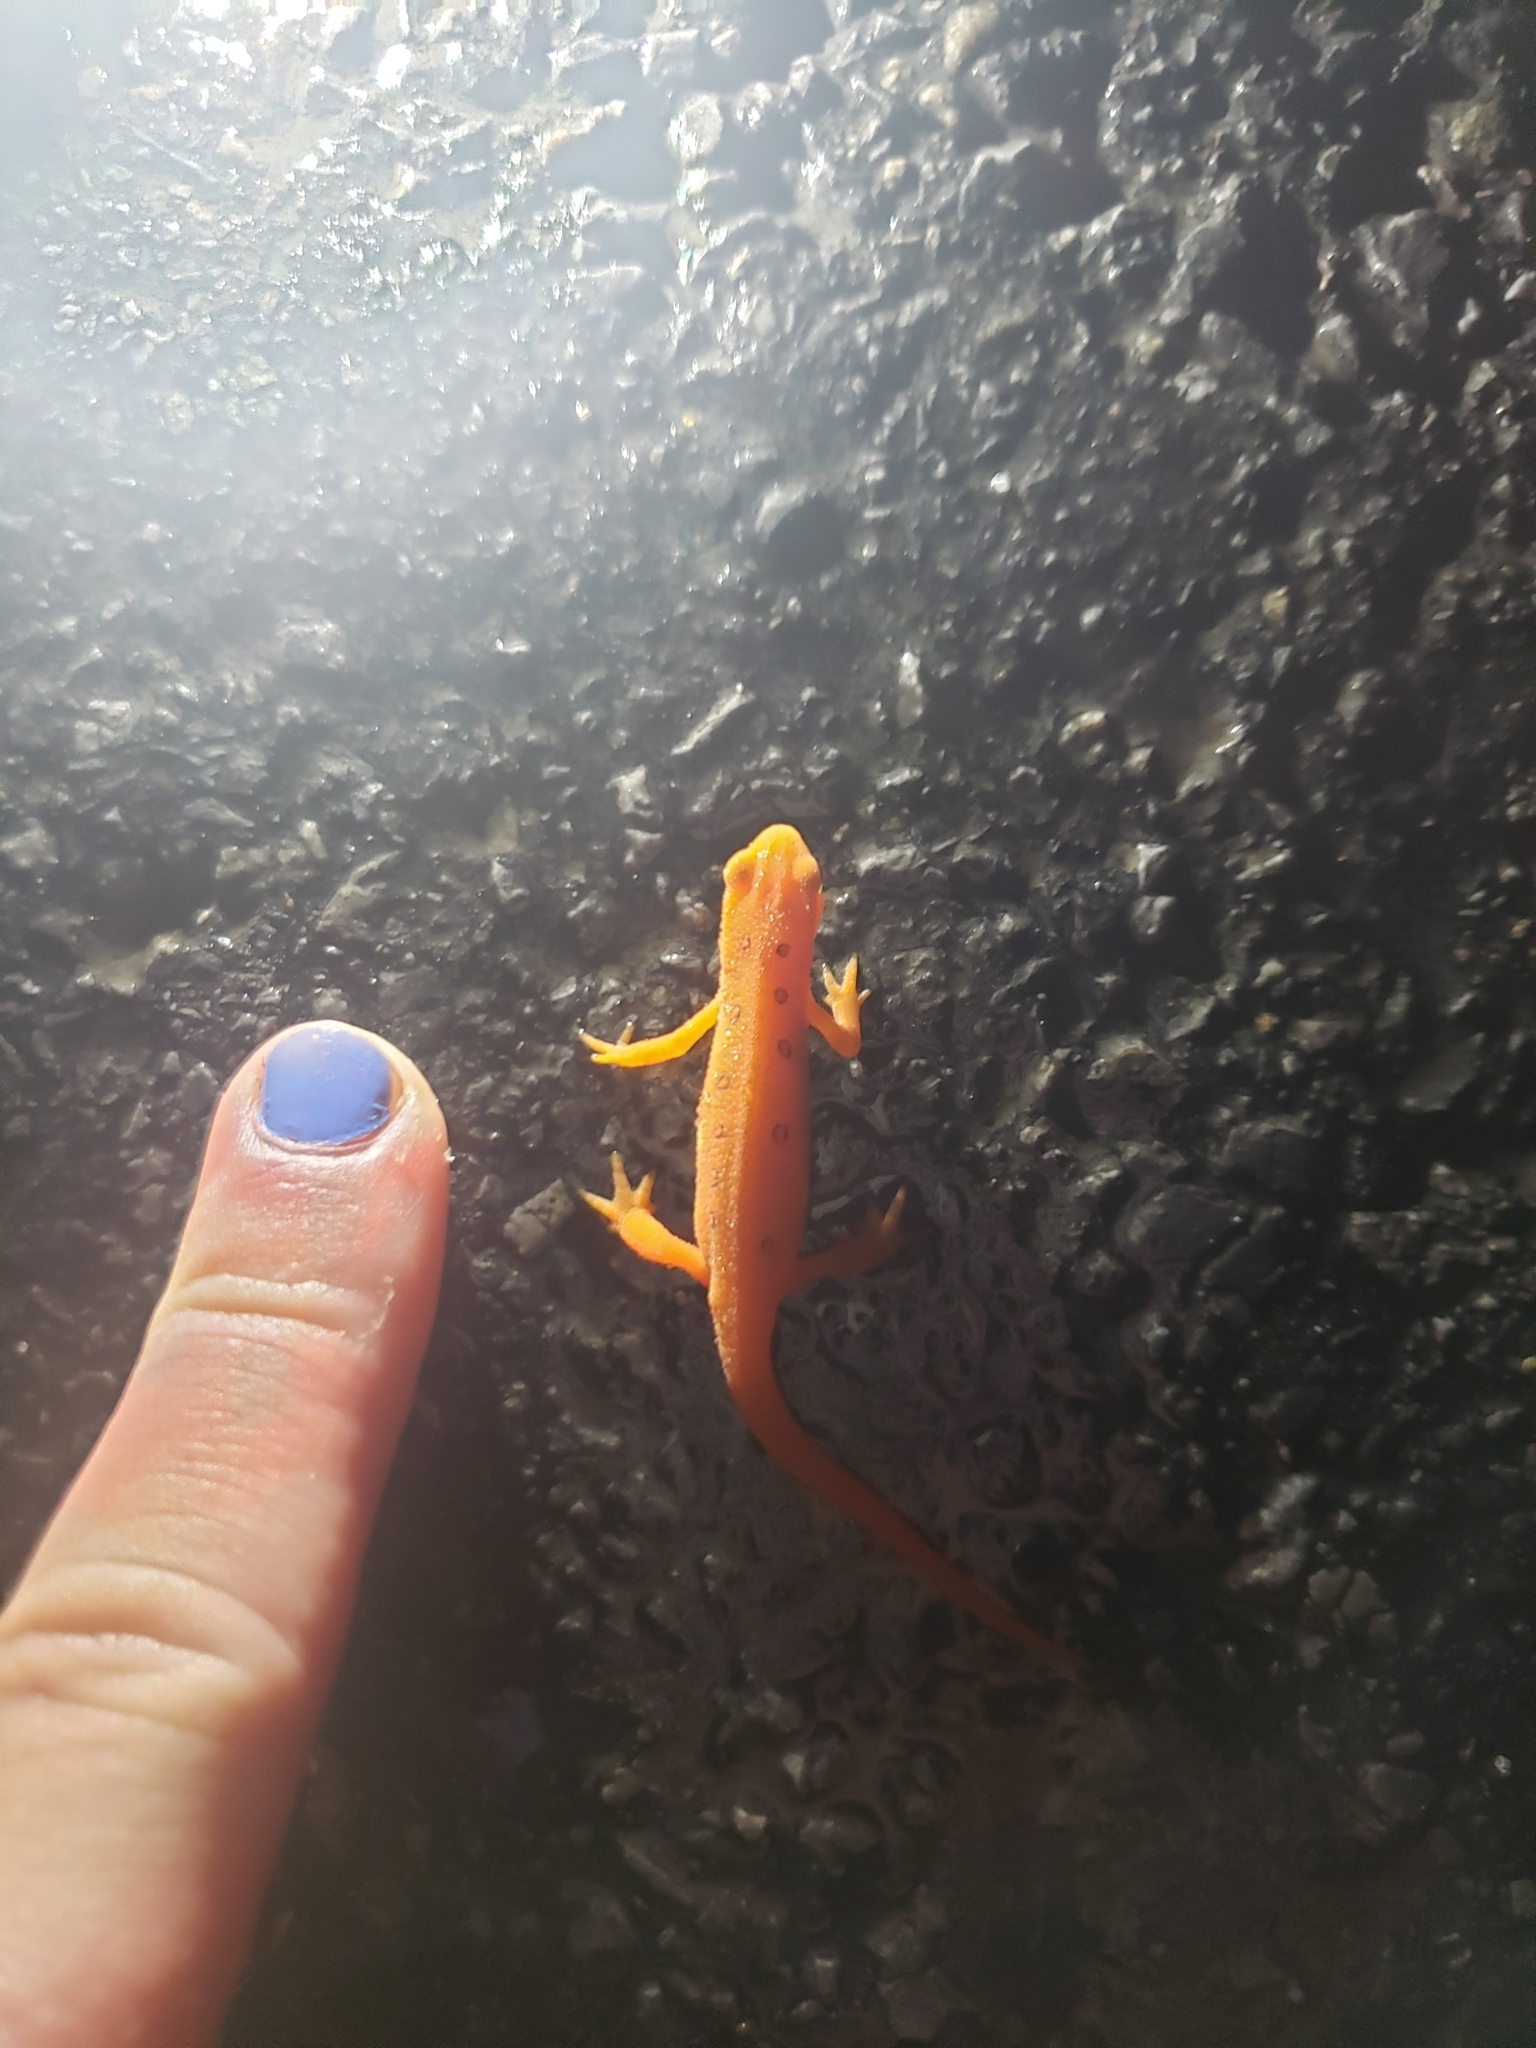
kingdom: Animalia
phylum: Chordata
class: Amphibia
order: Caudata
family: Salamandridae
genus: Notophthalmus
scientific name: Notophthalmus viridescens
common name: Eastern newt
